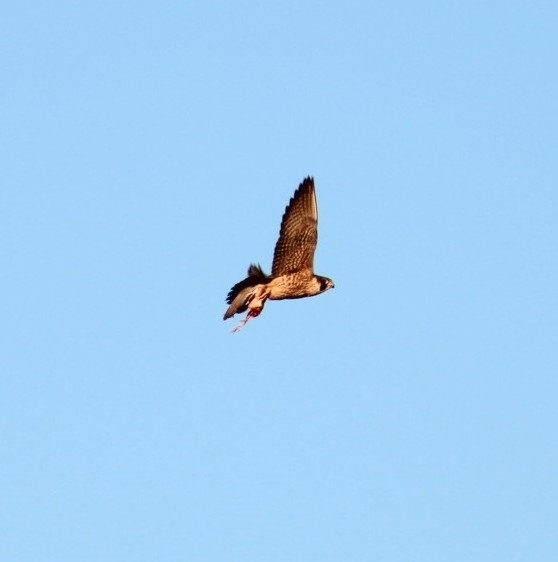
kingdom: Animalia
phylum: Chordata
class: Aves
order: Falconiformes
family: Falconidae
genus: Falco
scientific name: Falco peregrinus
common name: Peregrine falcon
